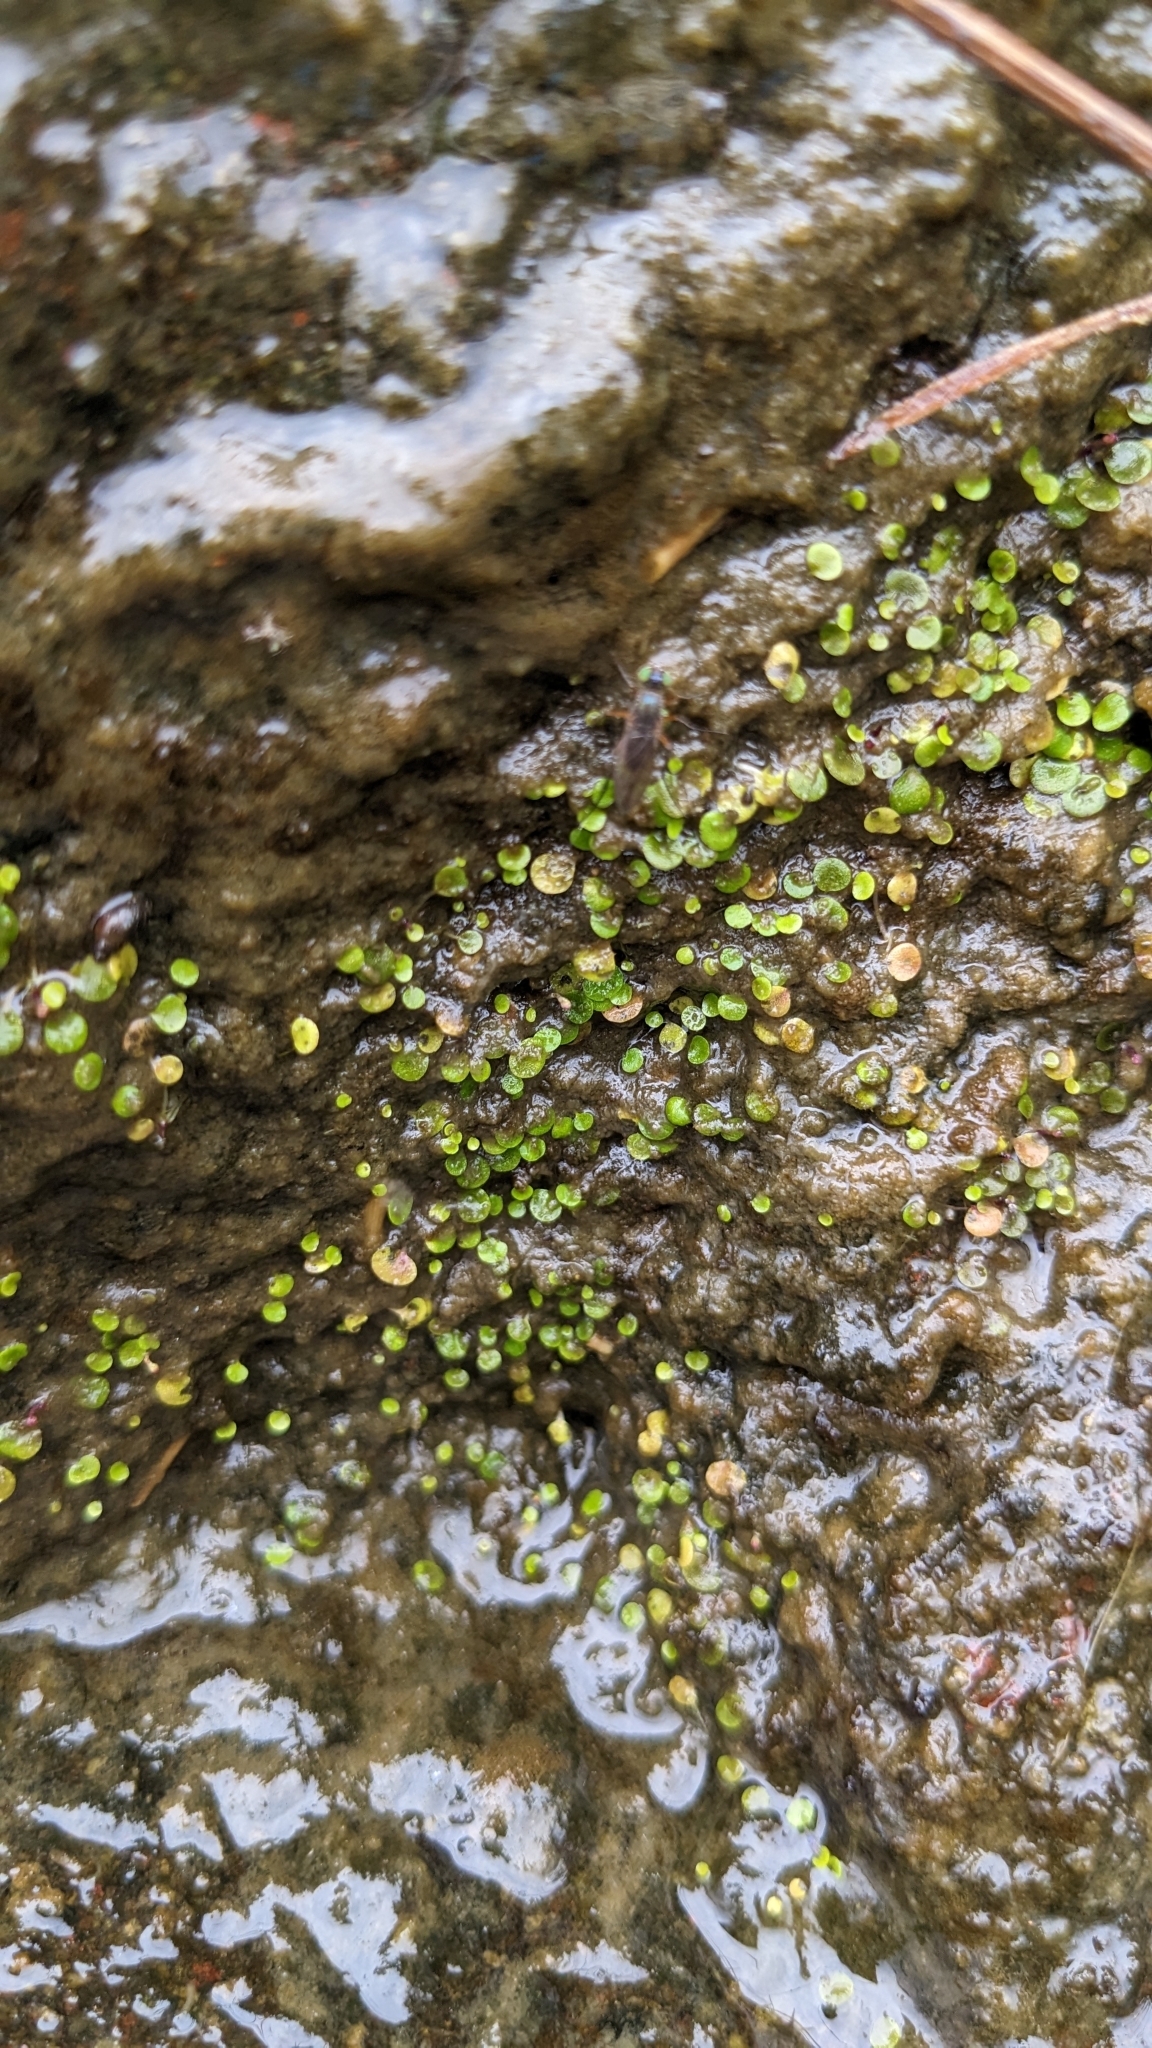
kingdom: Plantae
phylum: Tracheophyta
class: Magnoliopsida
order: Lamiales
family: Lentibulariaceae
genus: Utricularia
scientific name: Utricularia striatula
